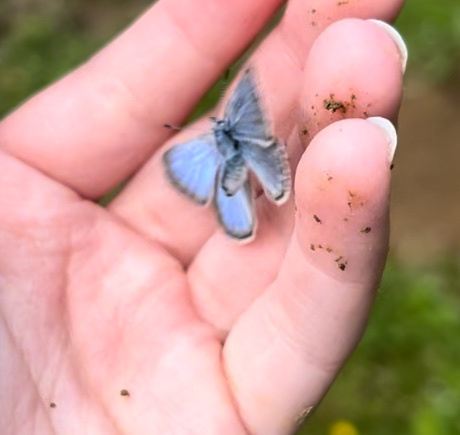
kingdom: Animalia
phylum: Arthropoda
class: Insecta
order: Lepidoptera
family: Lycaenidae
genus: Icaricia
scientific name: Icaricia icarioides
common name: Boisduval's blue
